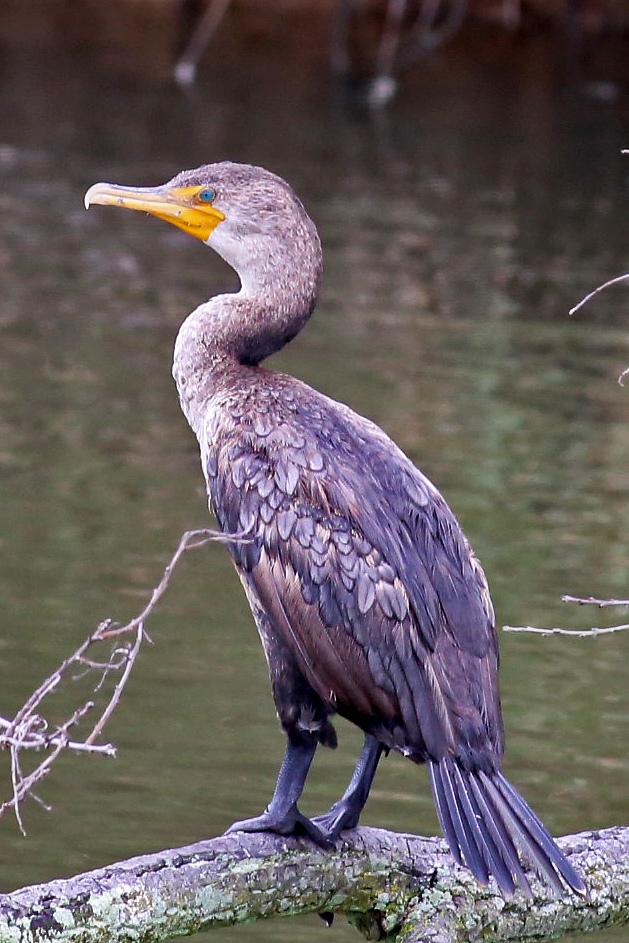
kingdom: Animalia
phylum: Chordata
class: Aves
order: Suliformes
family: Phalacrocoracidae
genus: Phalacrocorax
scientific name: Phalacrocorax auritus
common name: Double-crested cormorant
